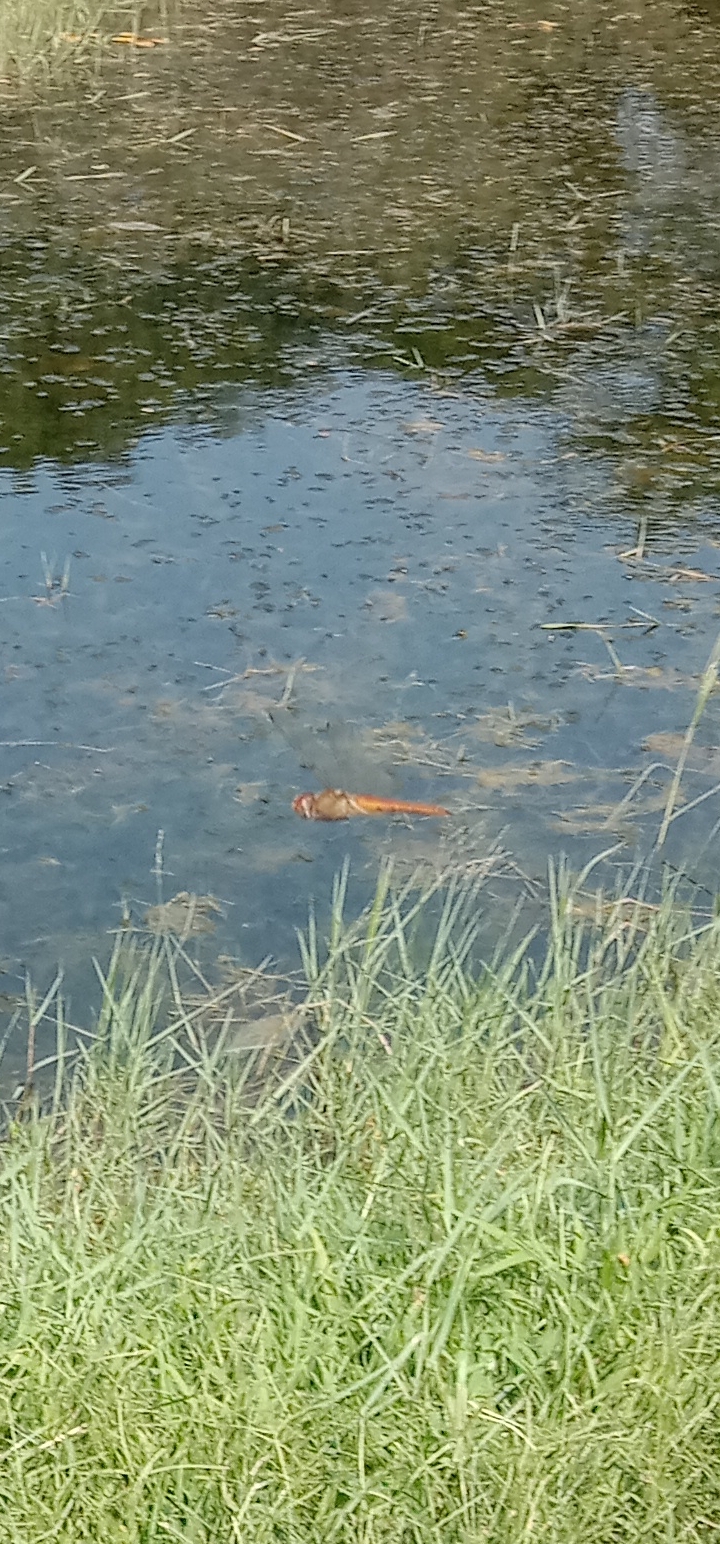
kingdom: Animalia
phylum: Arthropoda
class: Insecta
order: Odonata
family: Libellulidae
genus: Pantala
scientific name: Pantala flavescens
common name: Wandering glider
